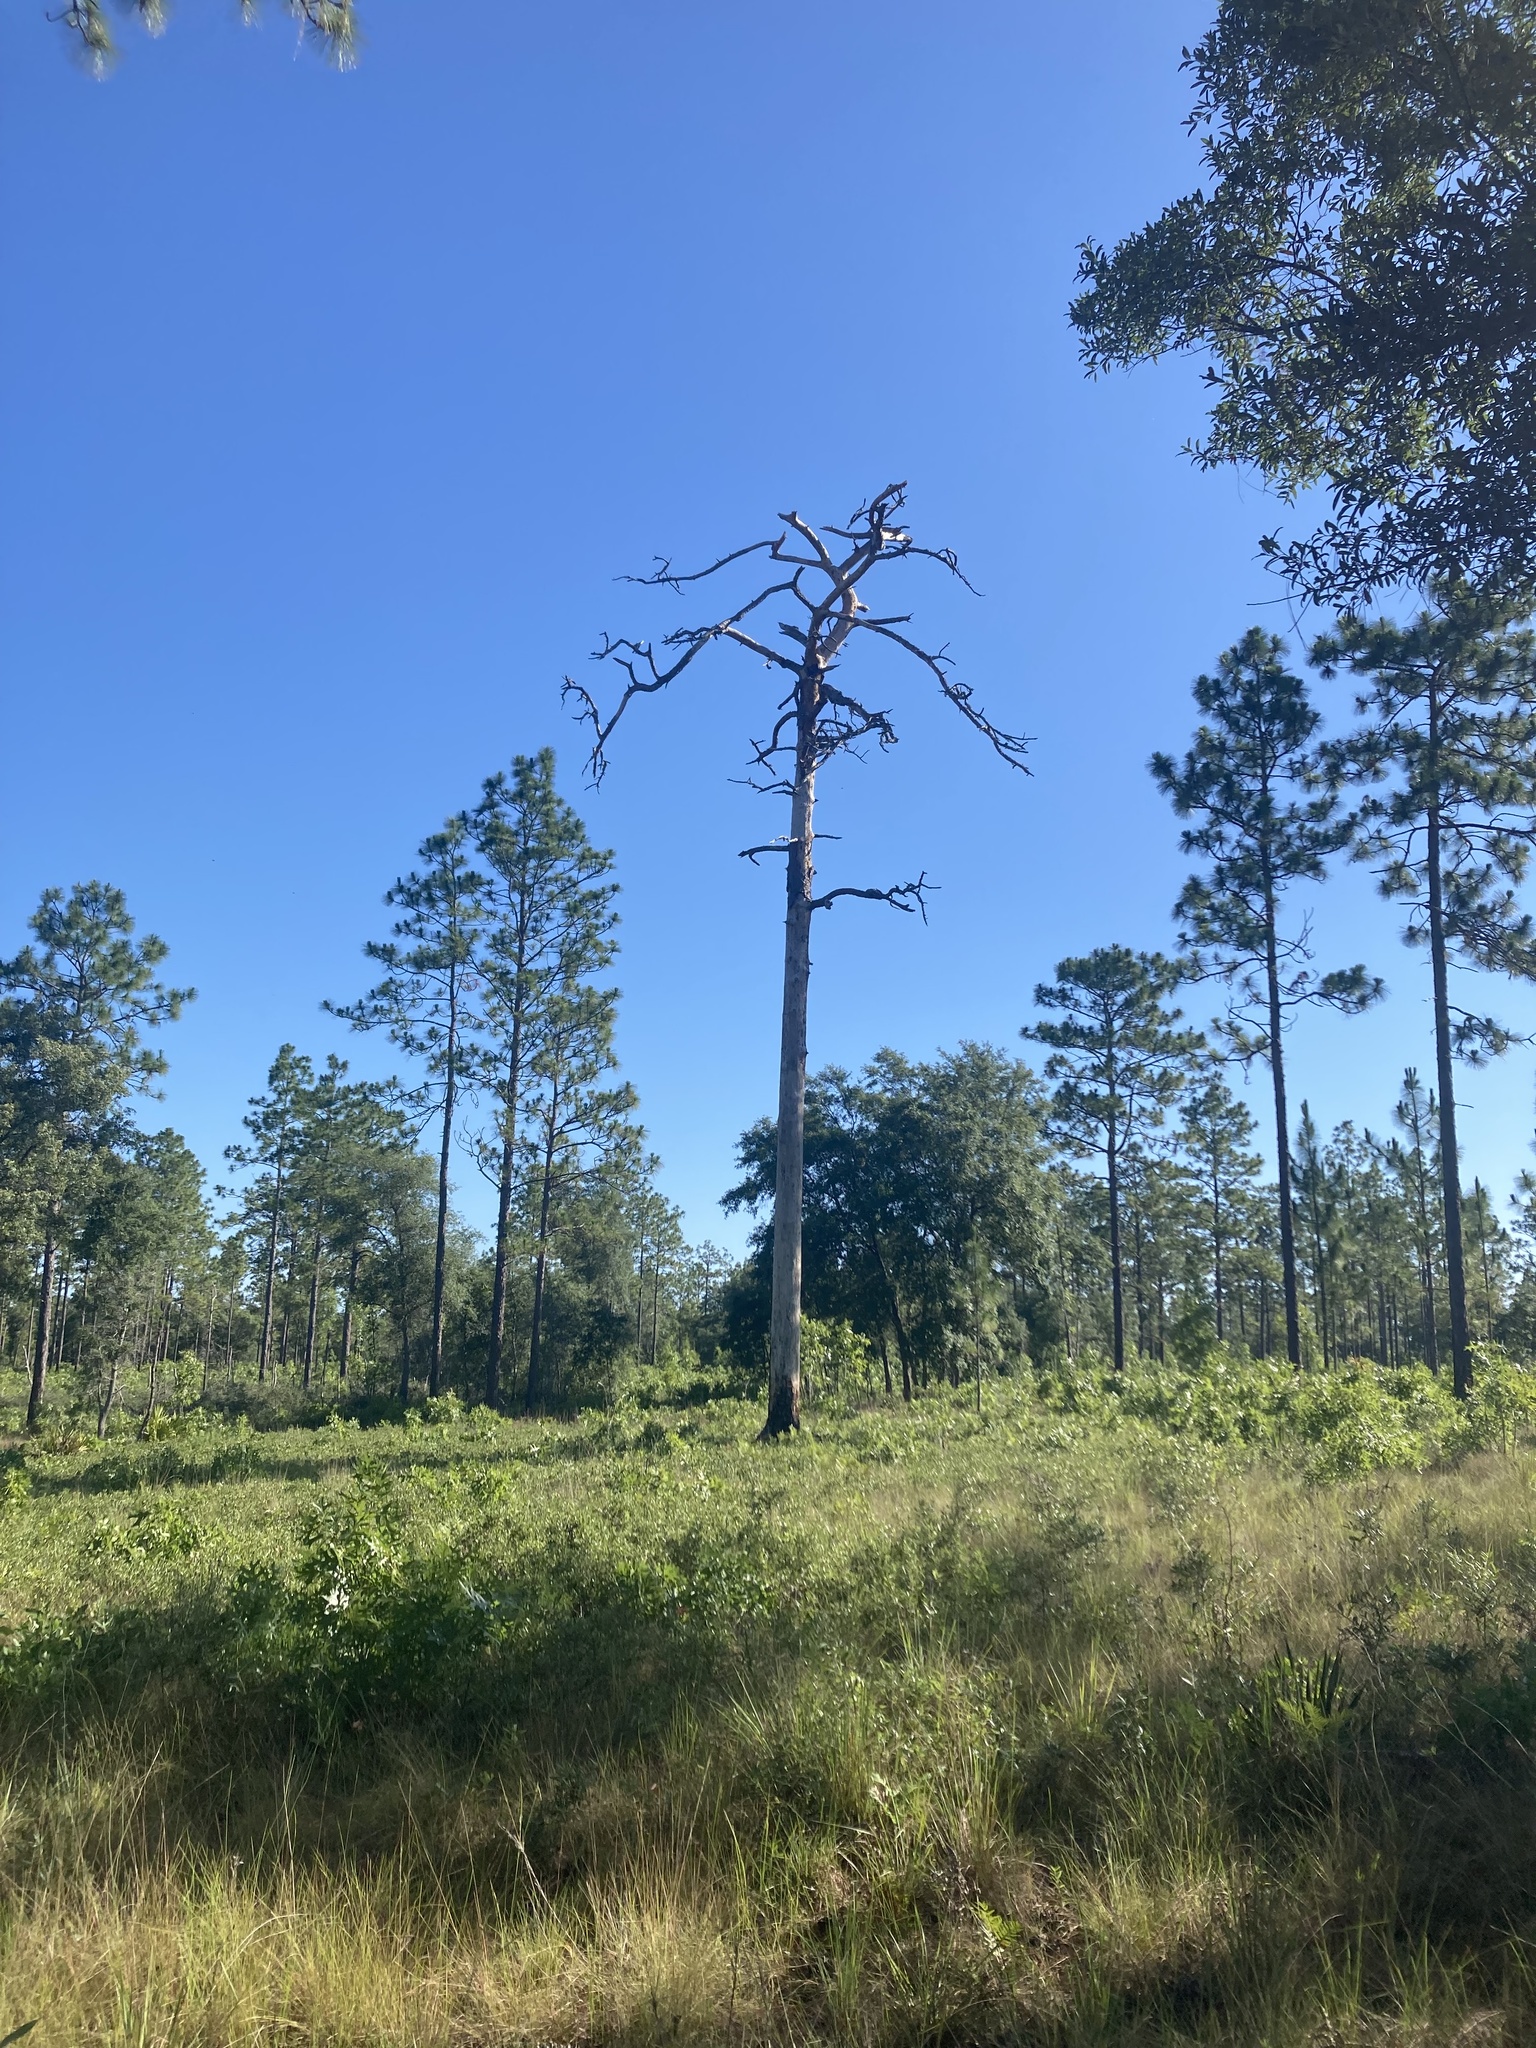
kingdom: Animalia
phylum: Chordata
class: Aves
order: Falconiformes
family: Falconidae
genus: Falco
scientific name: Falco sparverius
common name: American kestrel
